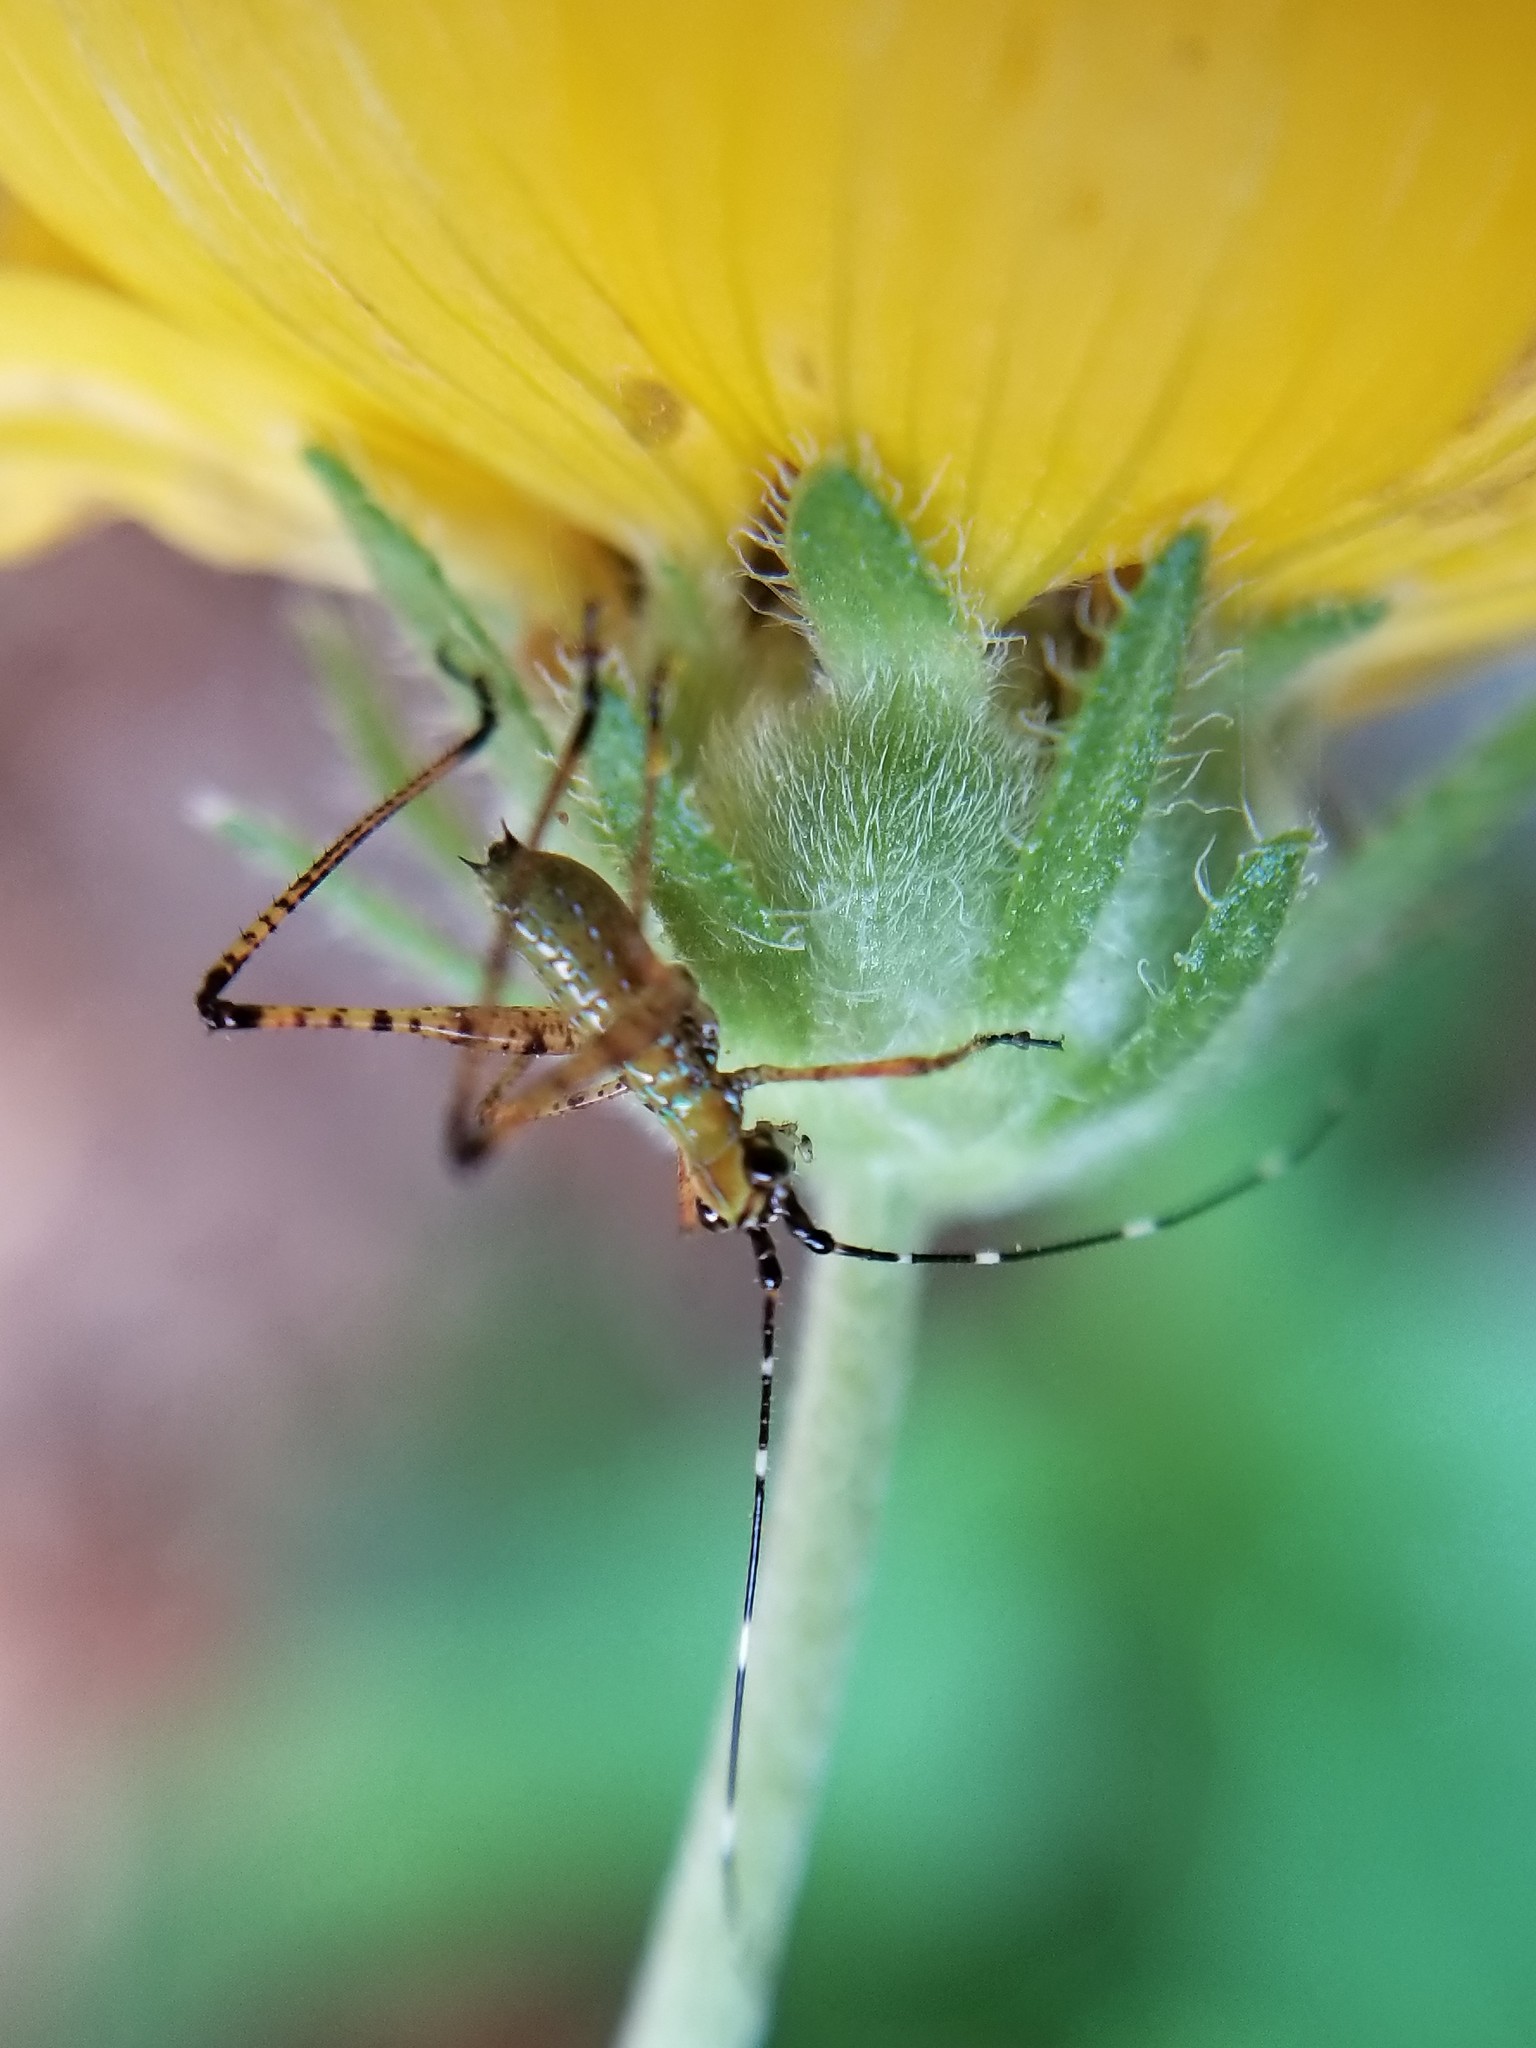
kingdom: Animalia
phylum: Arthropoda
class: Insecta
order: Orthoptera
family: Tettigoniidae
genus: Scudderia
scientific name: Scudderia furcata
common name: Fork-tailed bush katydid
